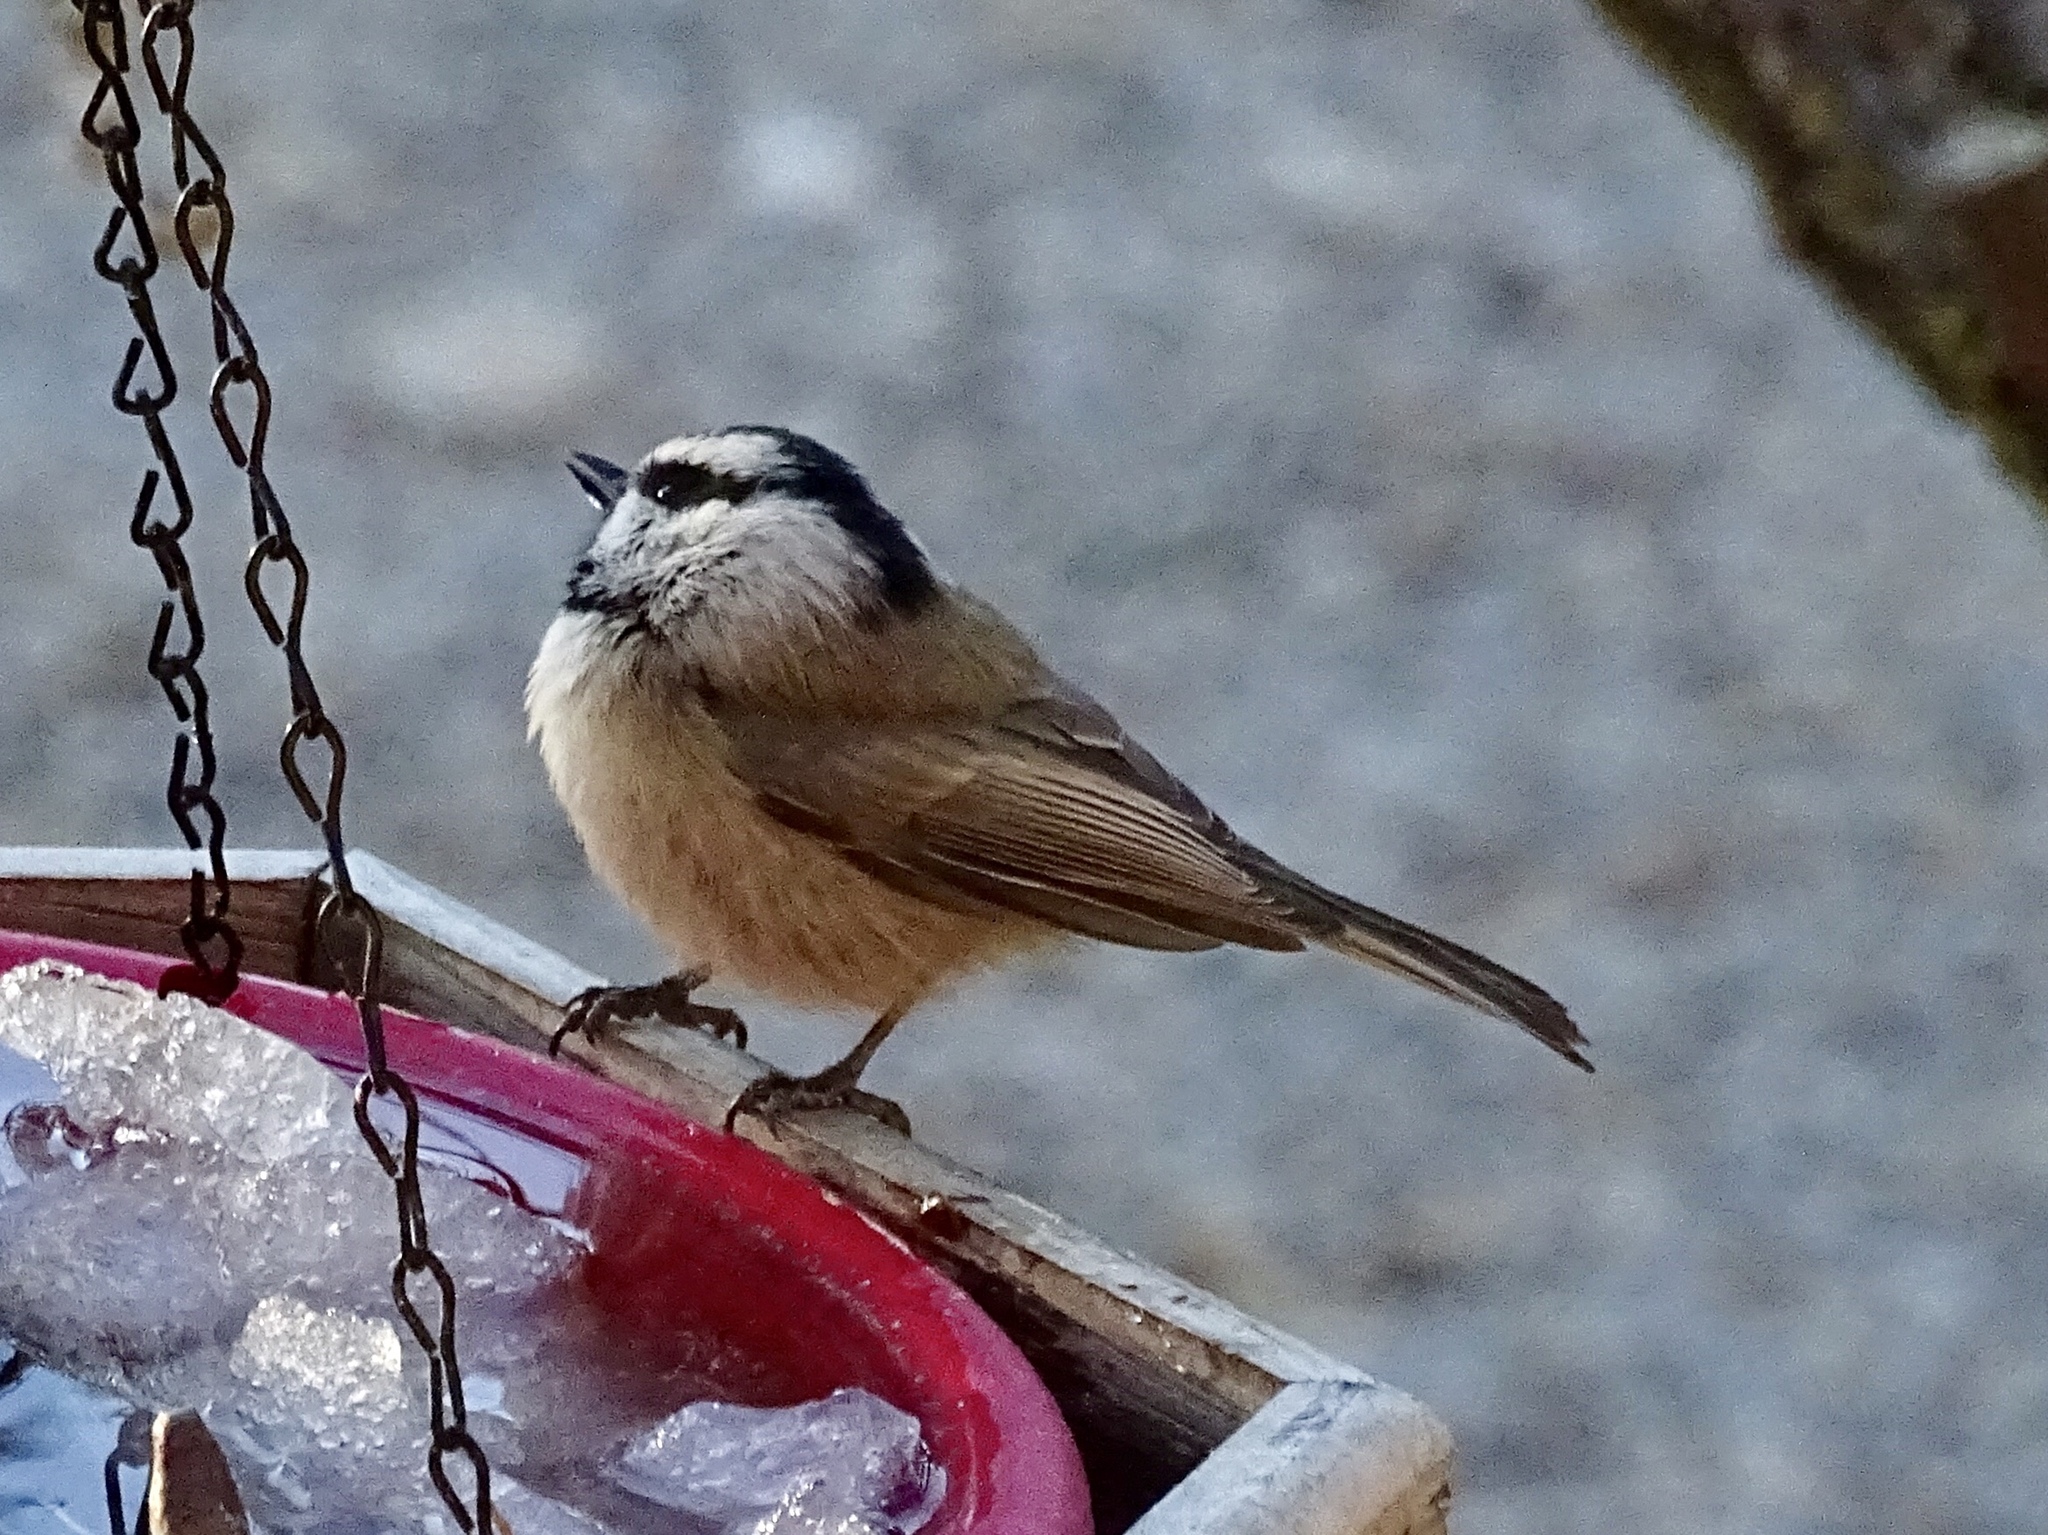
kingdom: Animalia
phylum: Chordata
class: Aves
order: Passeriformes
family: Paridae
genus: Poecile
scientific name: Poecile gambeli
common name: Mountain chickadee
